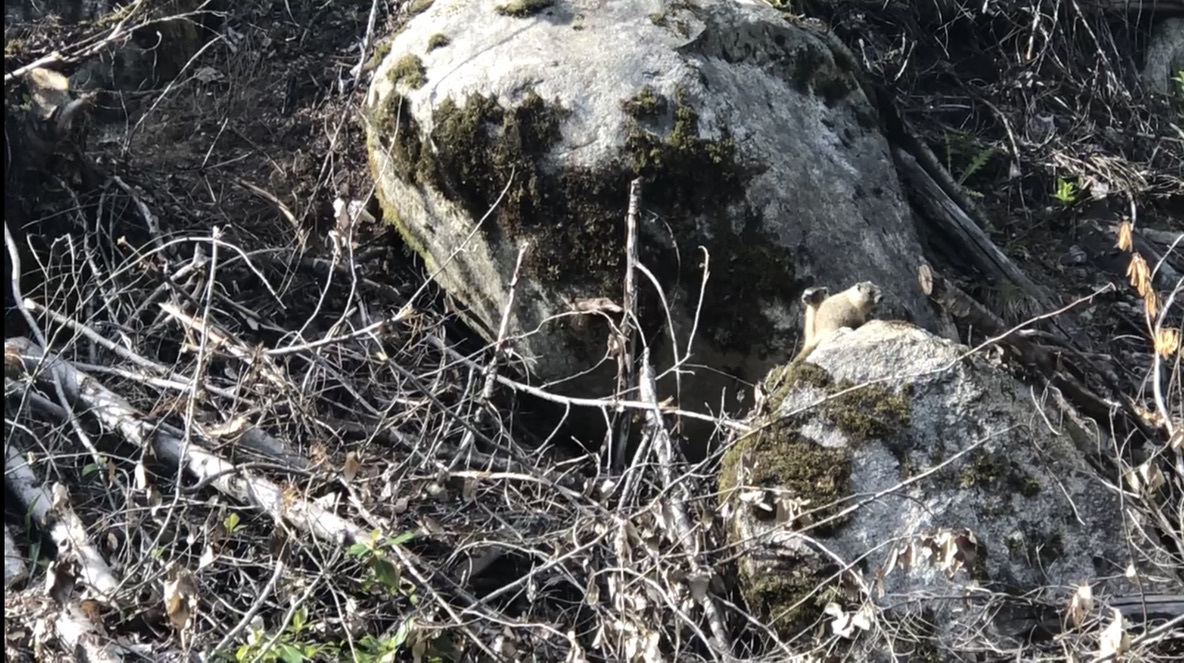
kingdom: Animalia
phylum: Chordata
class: Mammalia
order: Rodentia
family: Sciuridae
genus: Urocitellus
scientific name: Urocitellus columbianus
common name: Columbian ground squirrel
